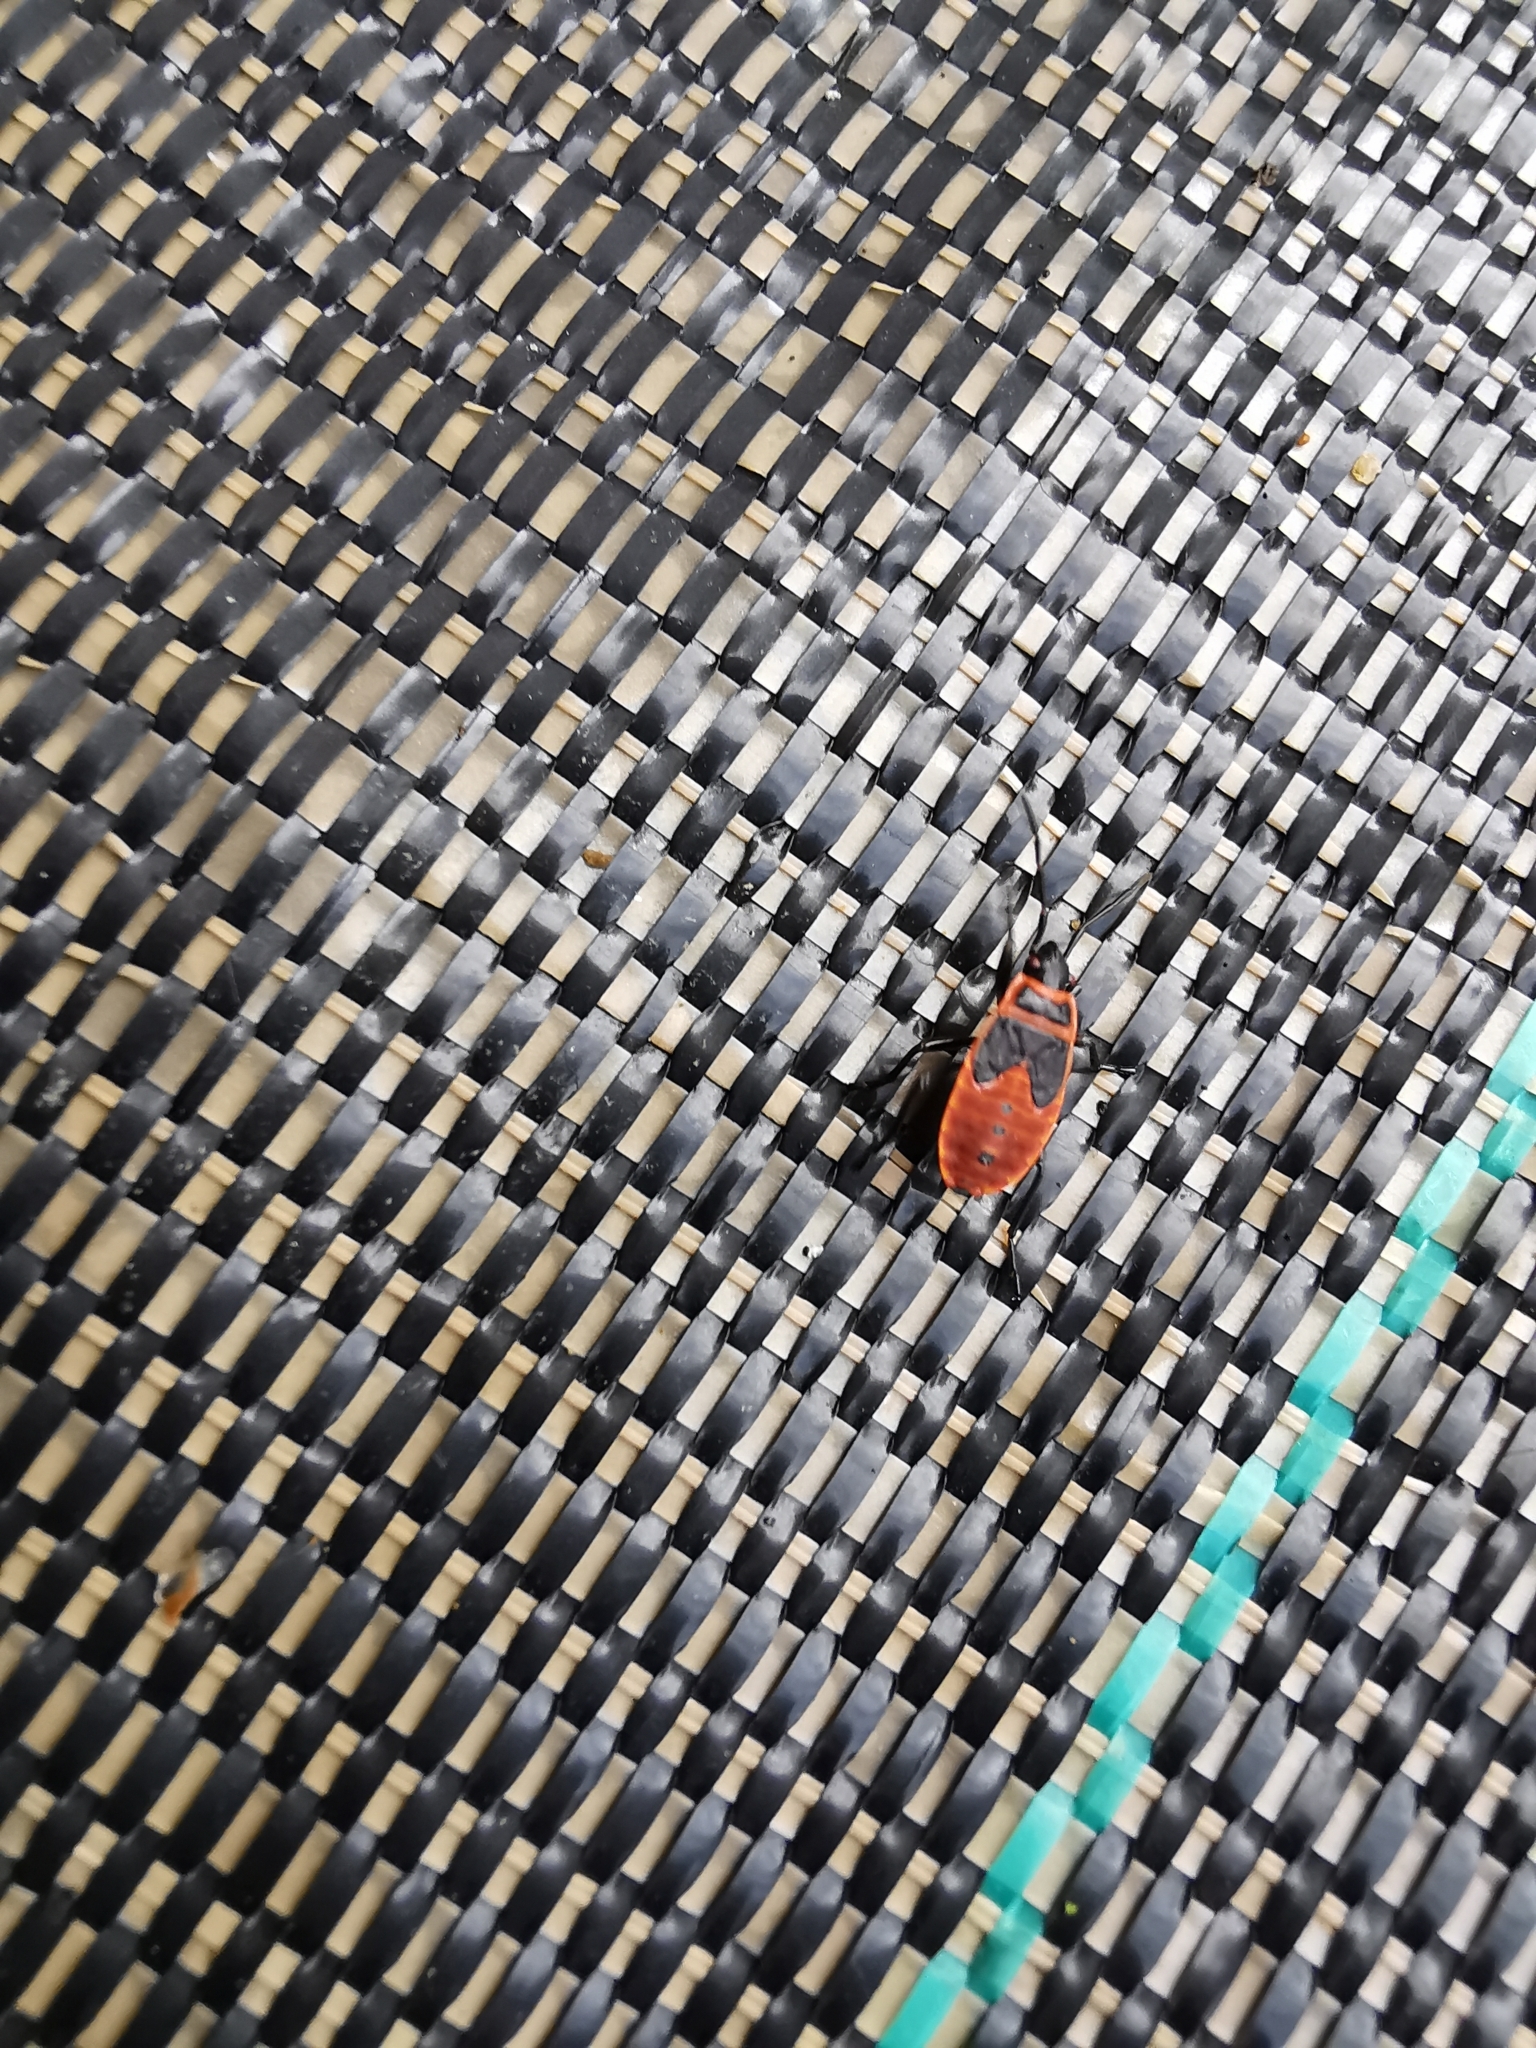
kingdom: Animalia
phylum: Arthropoda
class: Insecta
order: Hemiptera
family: Pyrrhocoridae
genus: Pyrrhocoris
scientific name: Pyrrhocoris apterus
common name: Firebug
